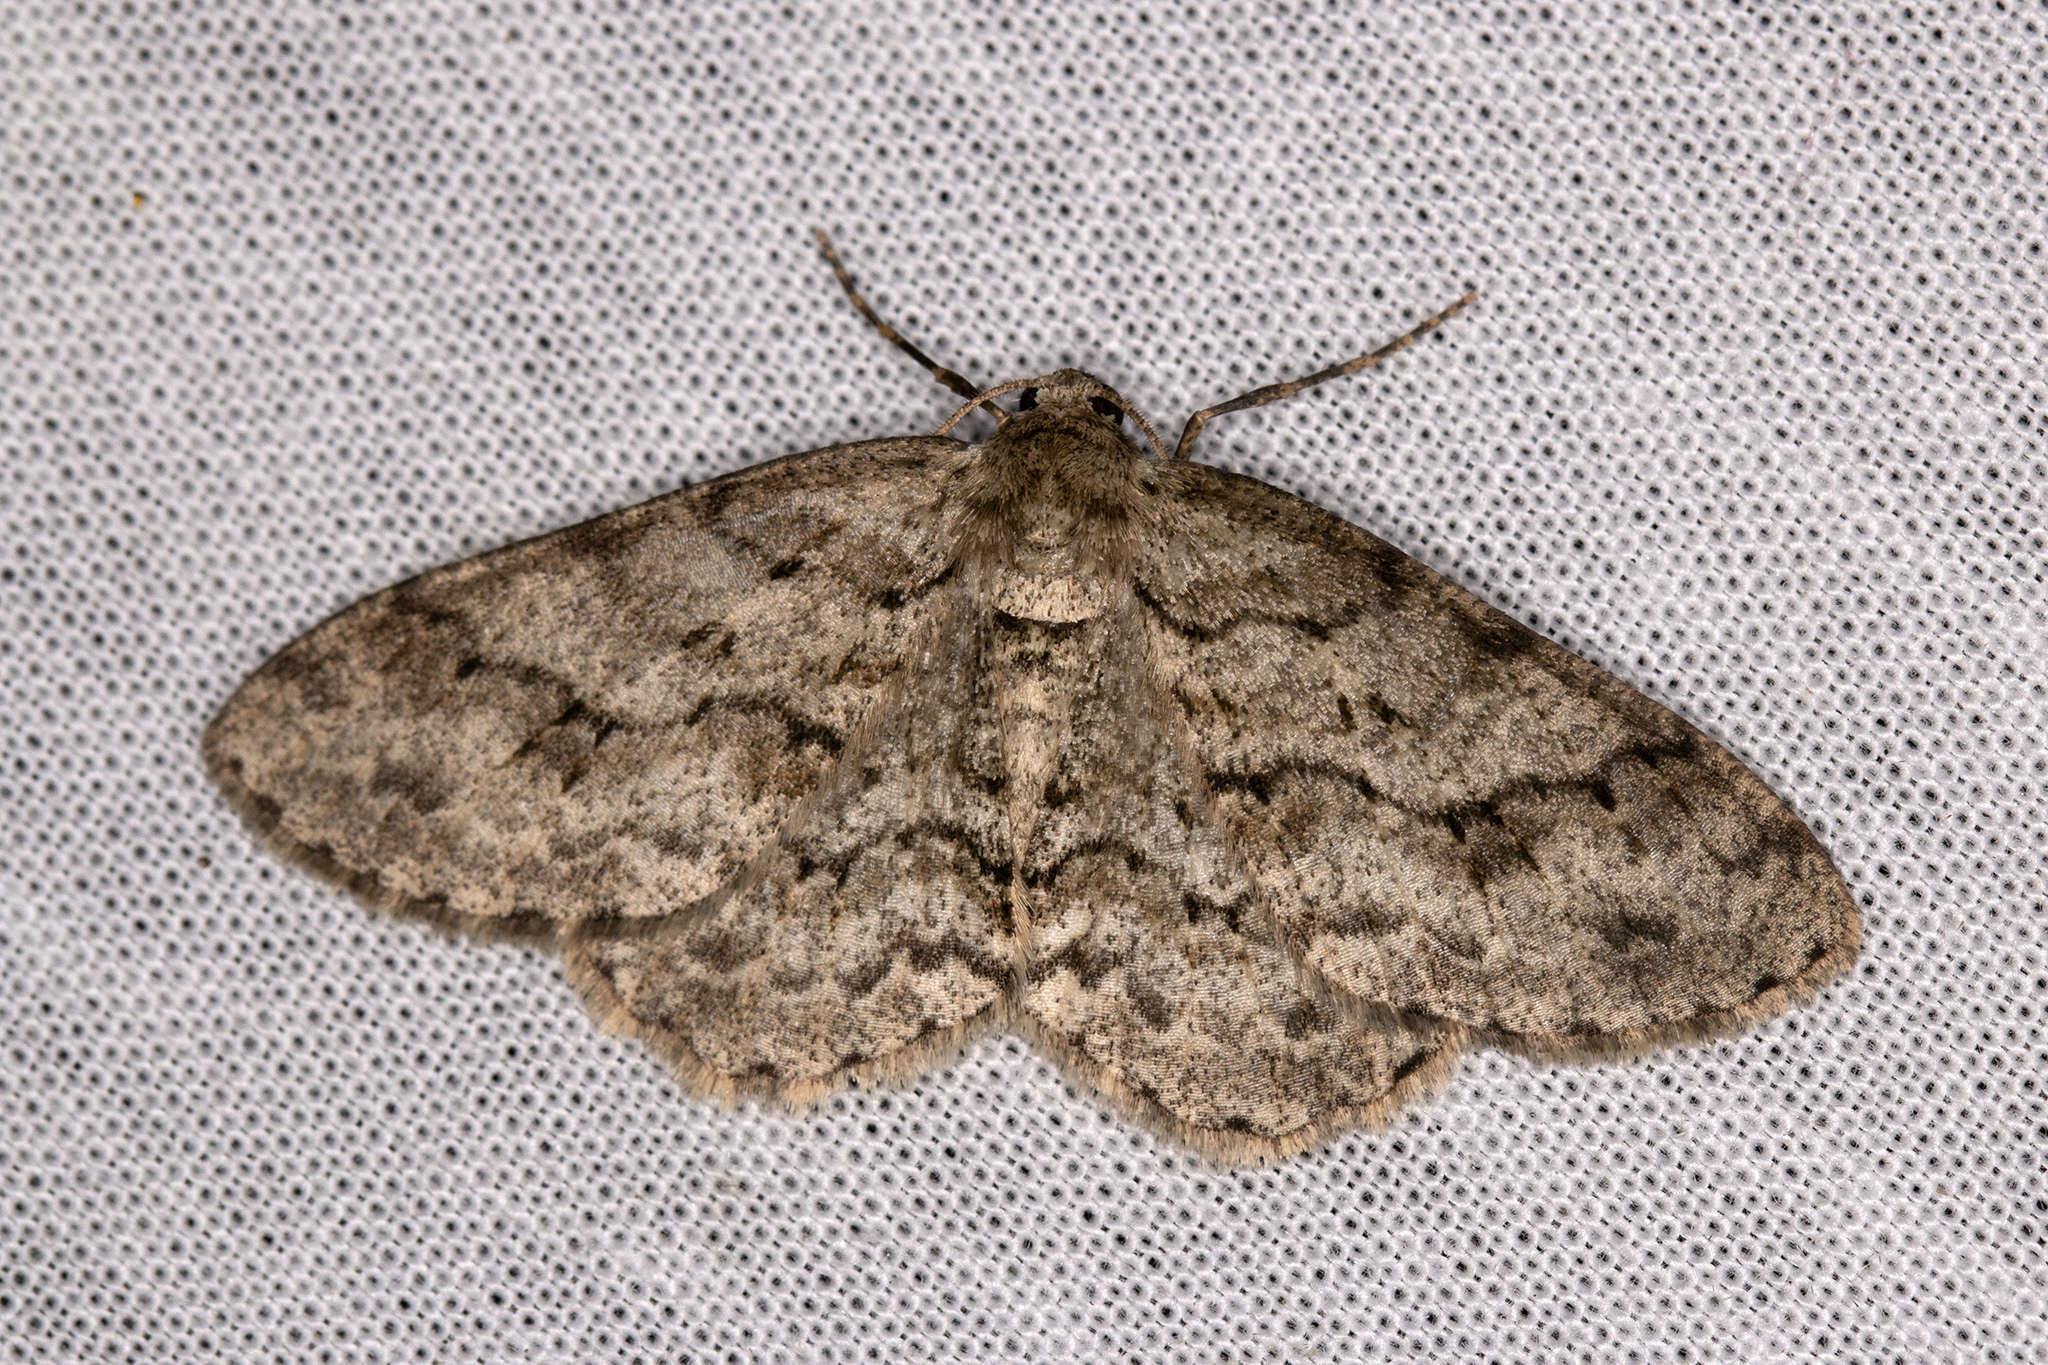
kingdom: Animalia
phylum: Arthropoda
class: Insecta
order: Lepidoptera
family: Geometridae
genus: Ectropis
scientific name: Ectropis crepuscularia
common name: Engrailed
